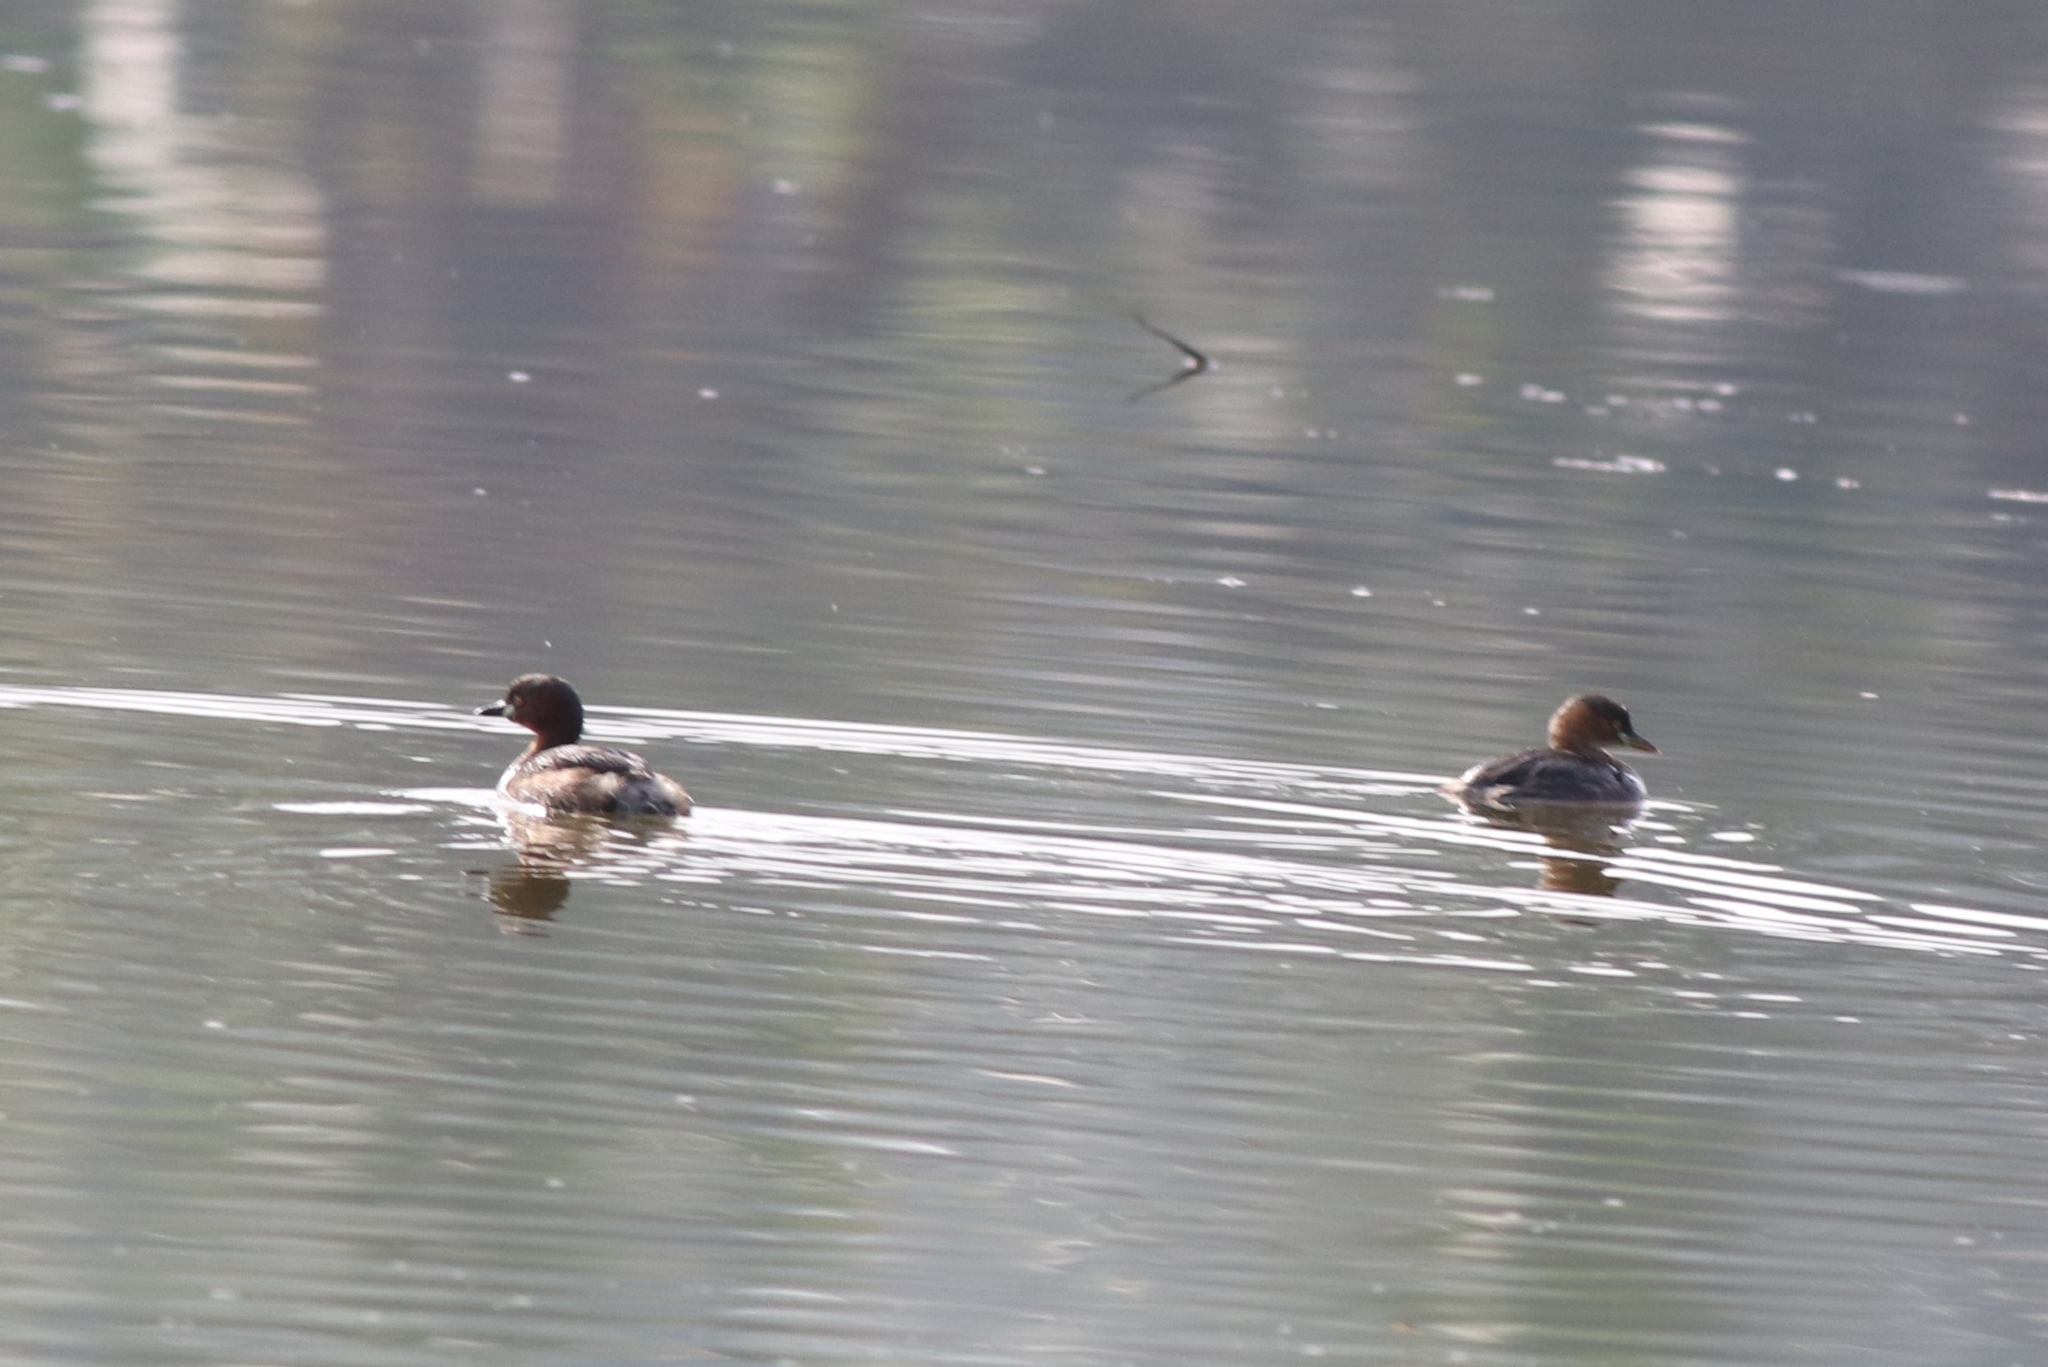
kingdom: Animalia
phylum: Chordata
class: Aves
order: Podicipediformes
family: Podicipedidae
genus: Tachybaptus
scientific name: Tachybaptus ruficollis
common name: Little grebe
